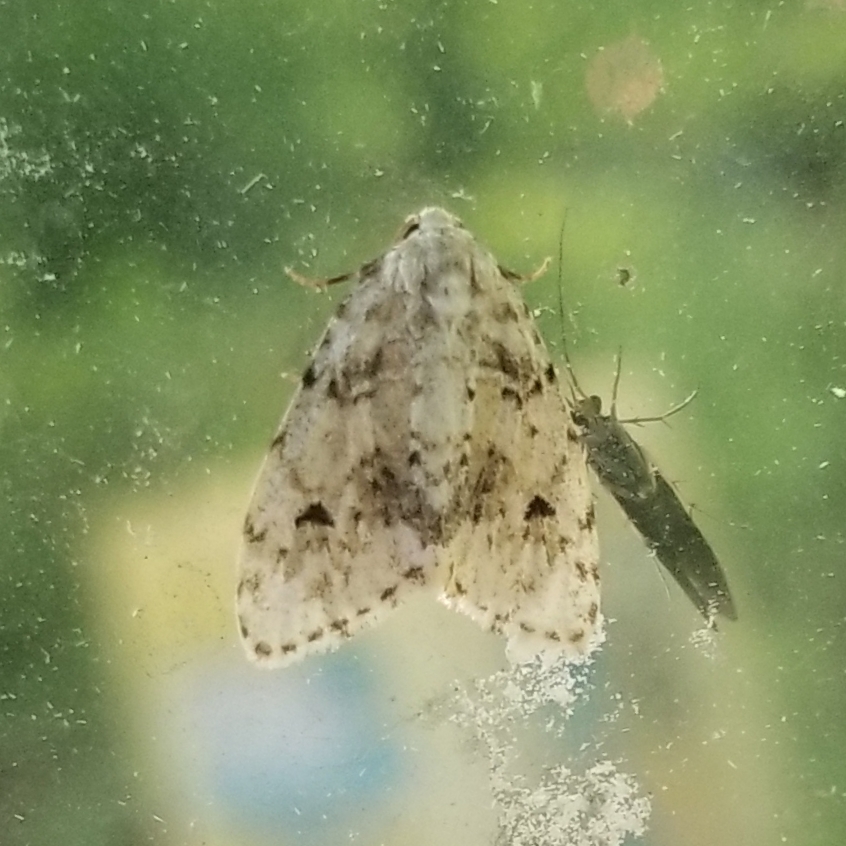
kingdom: Animalia
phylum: Arthropoda
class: Insecta
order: Lepidoptera
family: Erebidae
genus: Clemensia
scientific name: Clemensia albata
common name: Little white lichen moth
